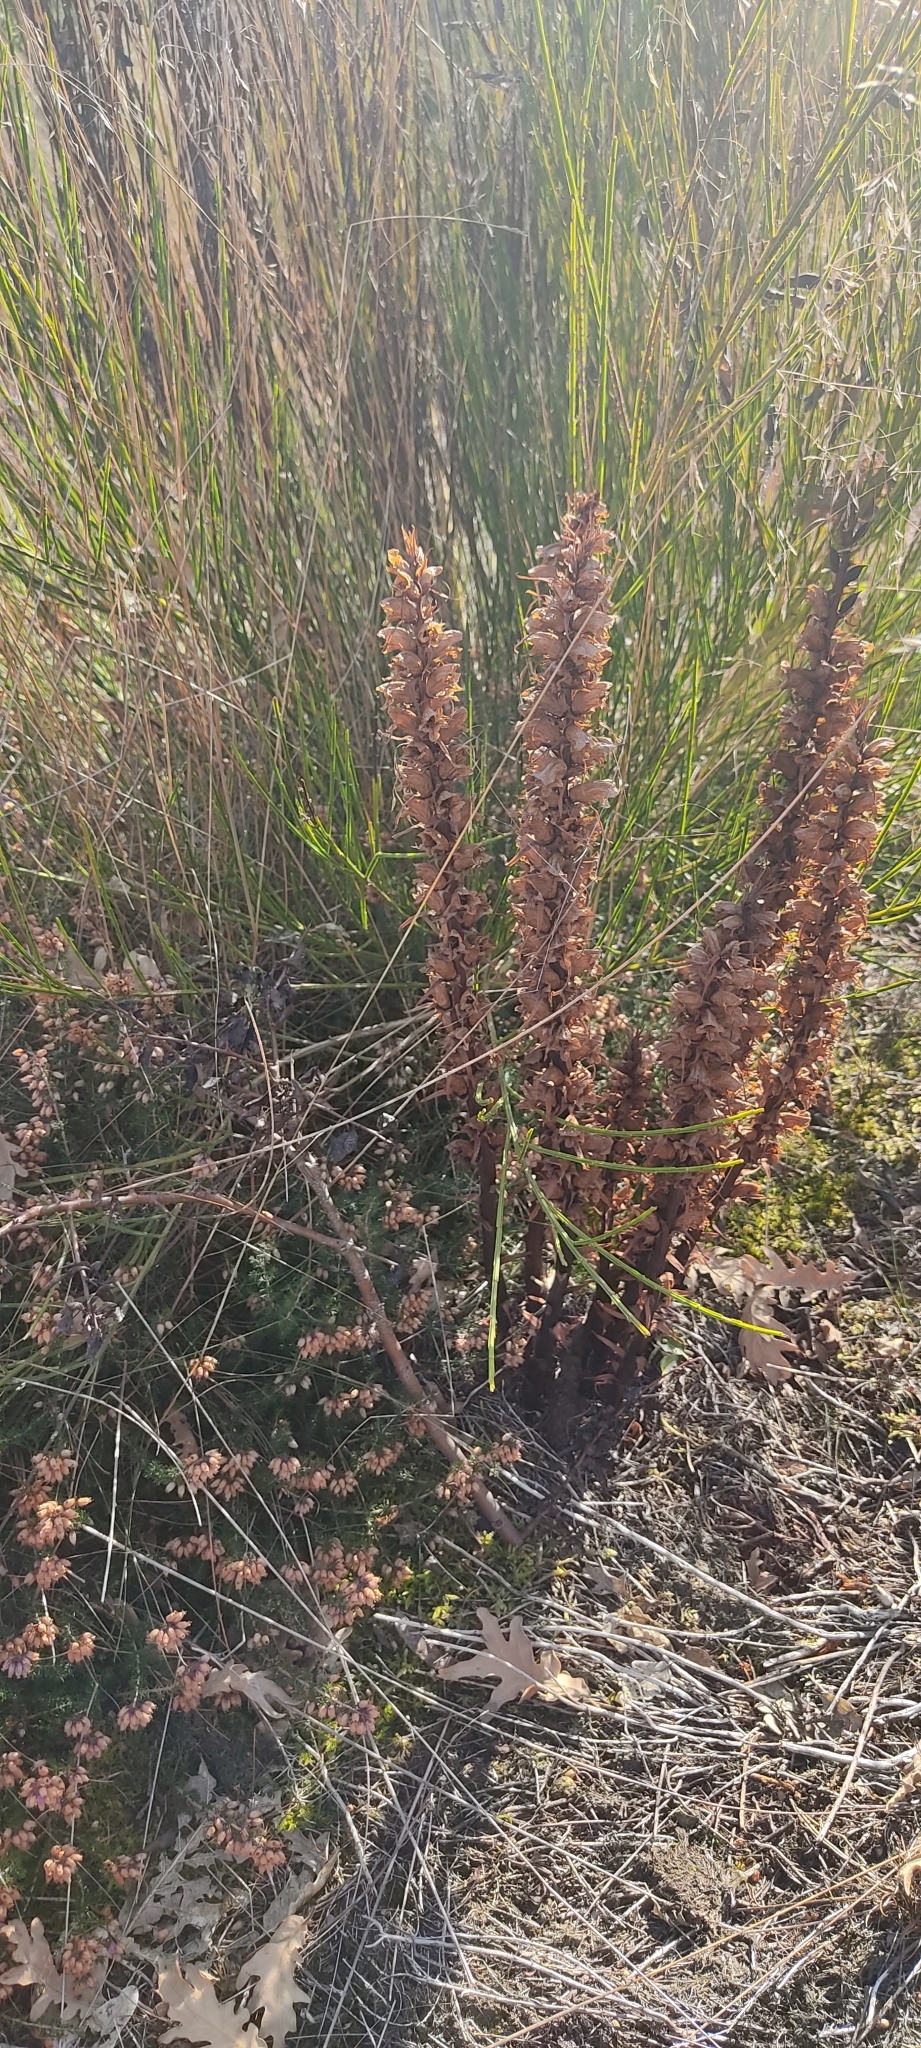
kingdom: Plantae
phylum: Tracheophyta
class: Magnoliopsida
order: Lamiales
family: Orobanchaceae
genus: Orobanche
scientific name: Orobanche rapum-genistae
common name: Greater broomrape
